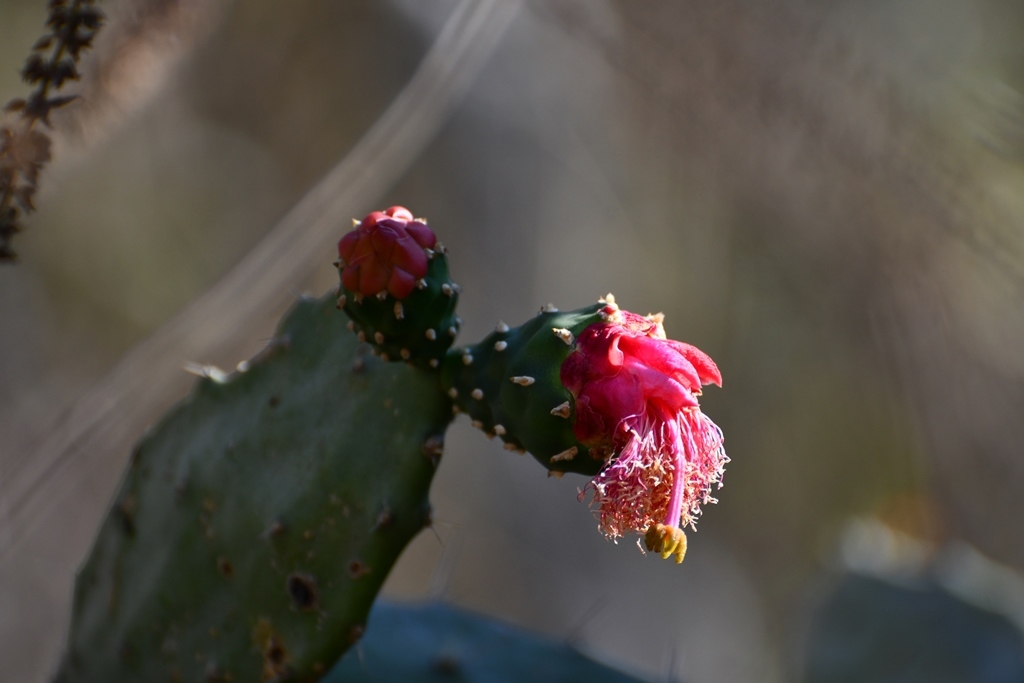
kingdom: Plantae
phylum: Tracheophyta
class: Magnoliopsida
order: Caryophyllales
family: Cactaceae
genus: Opuntia
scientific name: Opuntia dejecta
